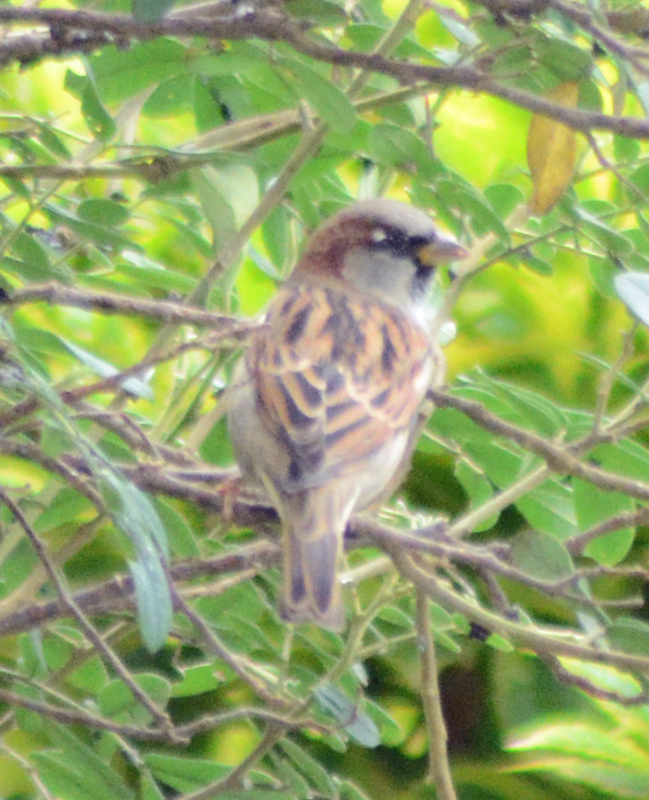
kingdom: Animalia
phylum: Chordata
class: Aves
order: Passeriformes
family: Passeridae
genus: Passer
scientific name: Passer domesticus
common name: House sparrow
